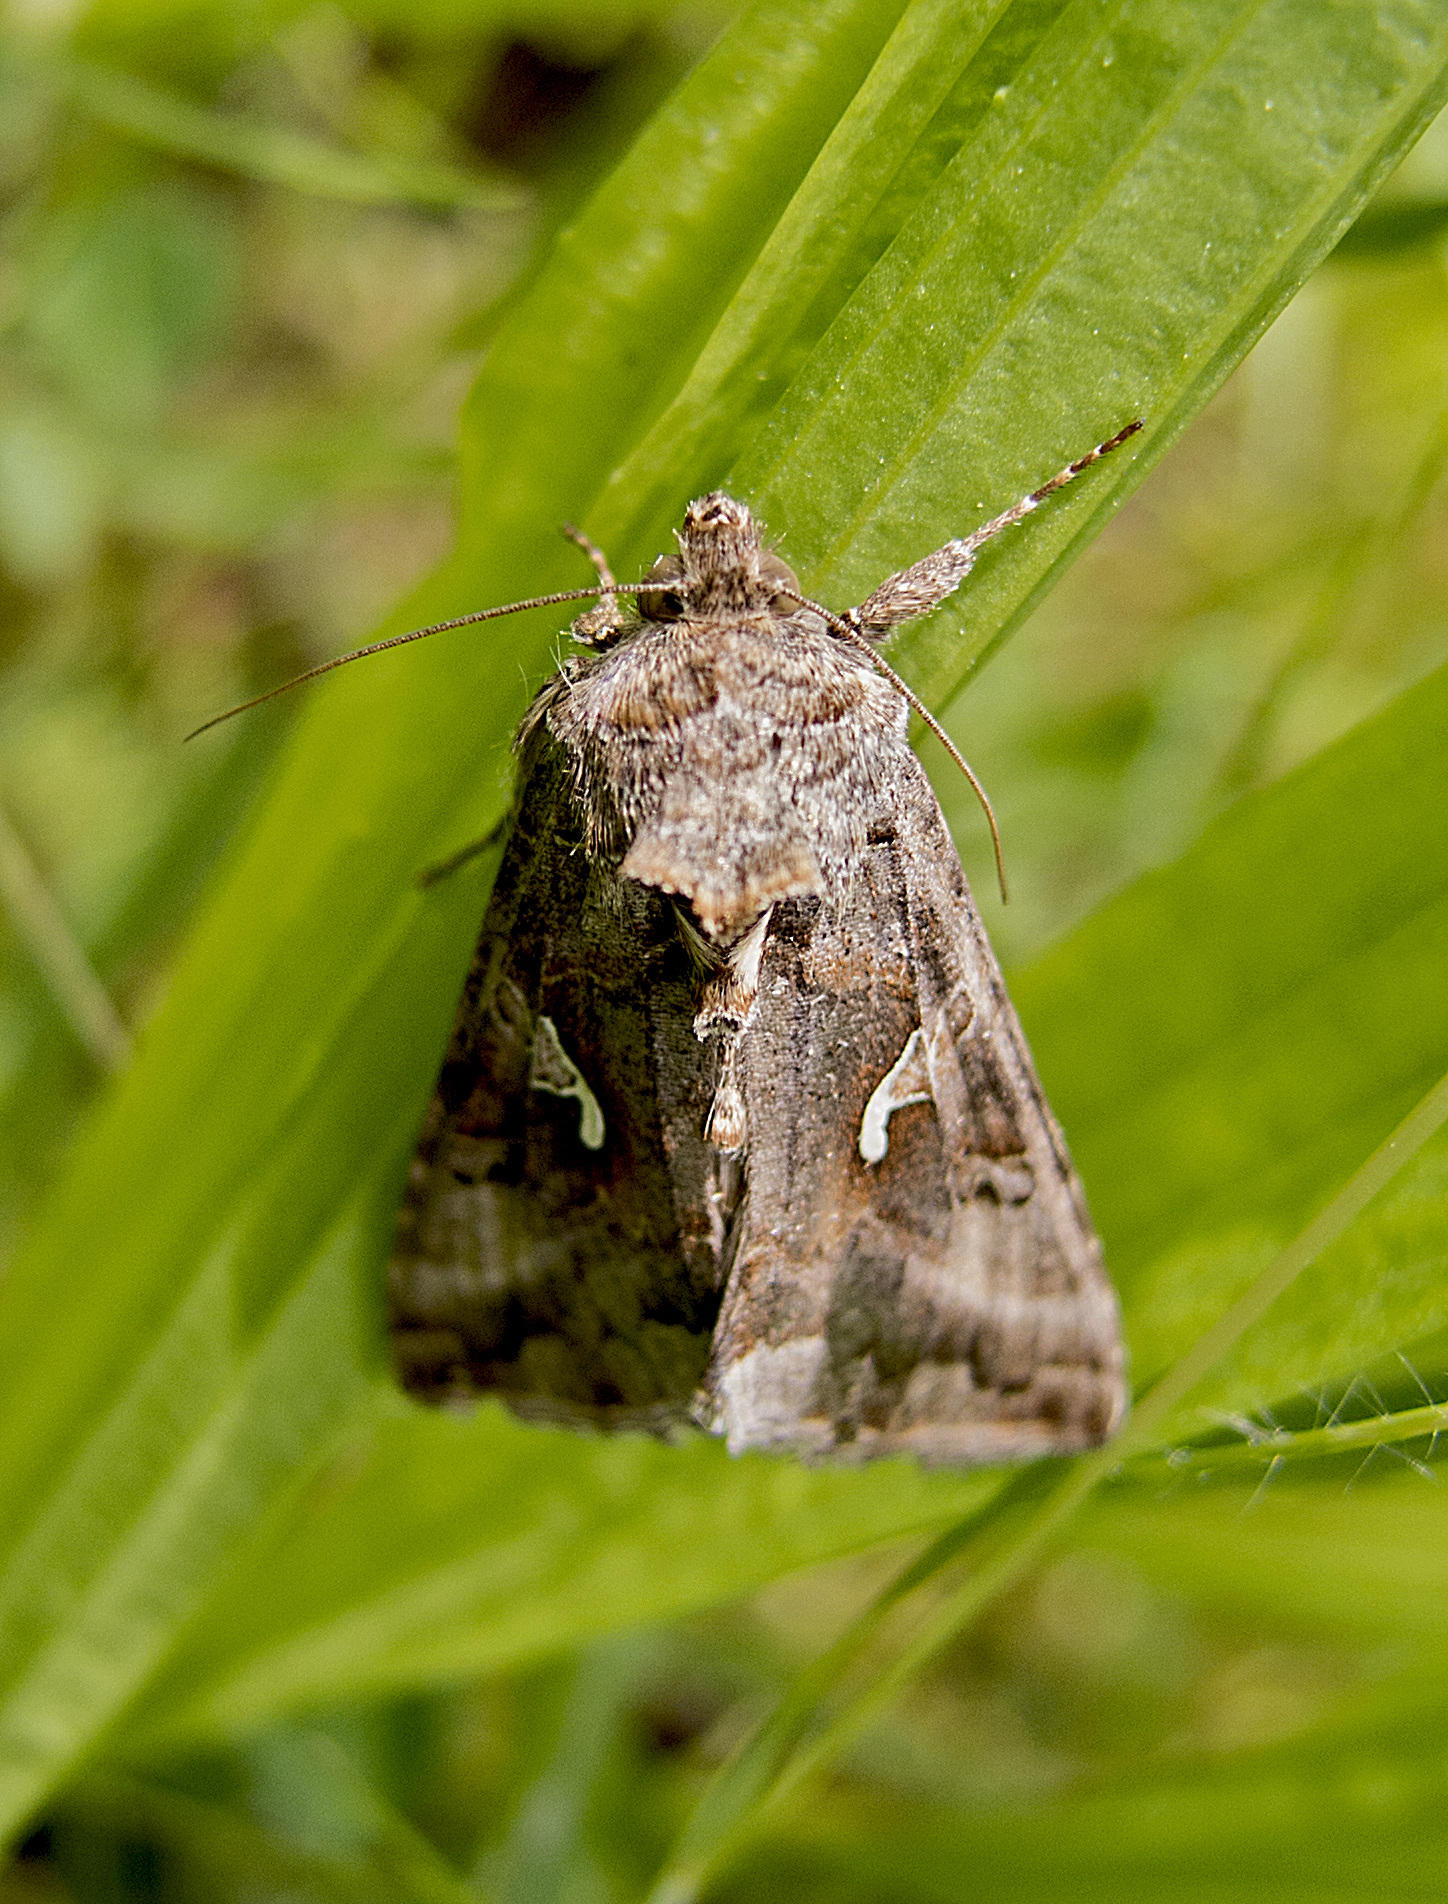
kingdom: Animalia
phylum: Arthropoda
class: Insecta
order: Lepidoptera
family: Noctuidae
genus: Autographa
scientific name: Autographa gamma
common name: Silver y
